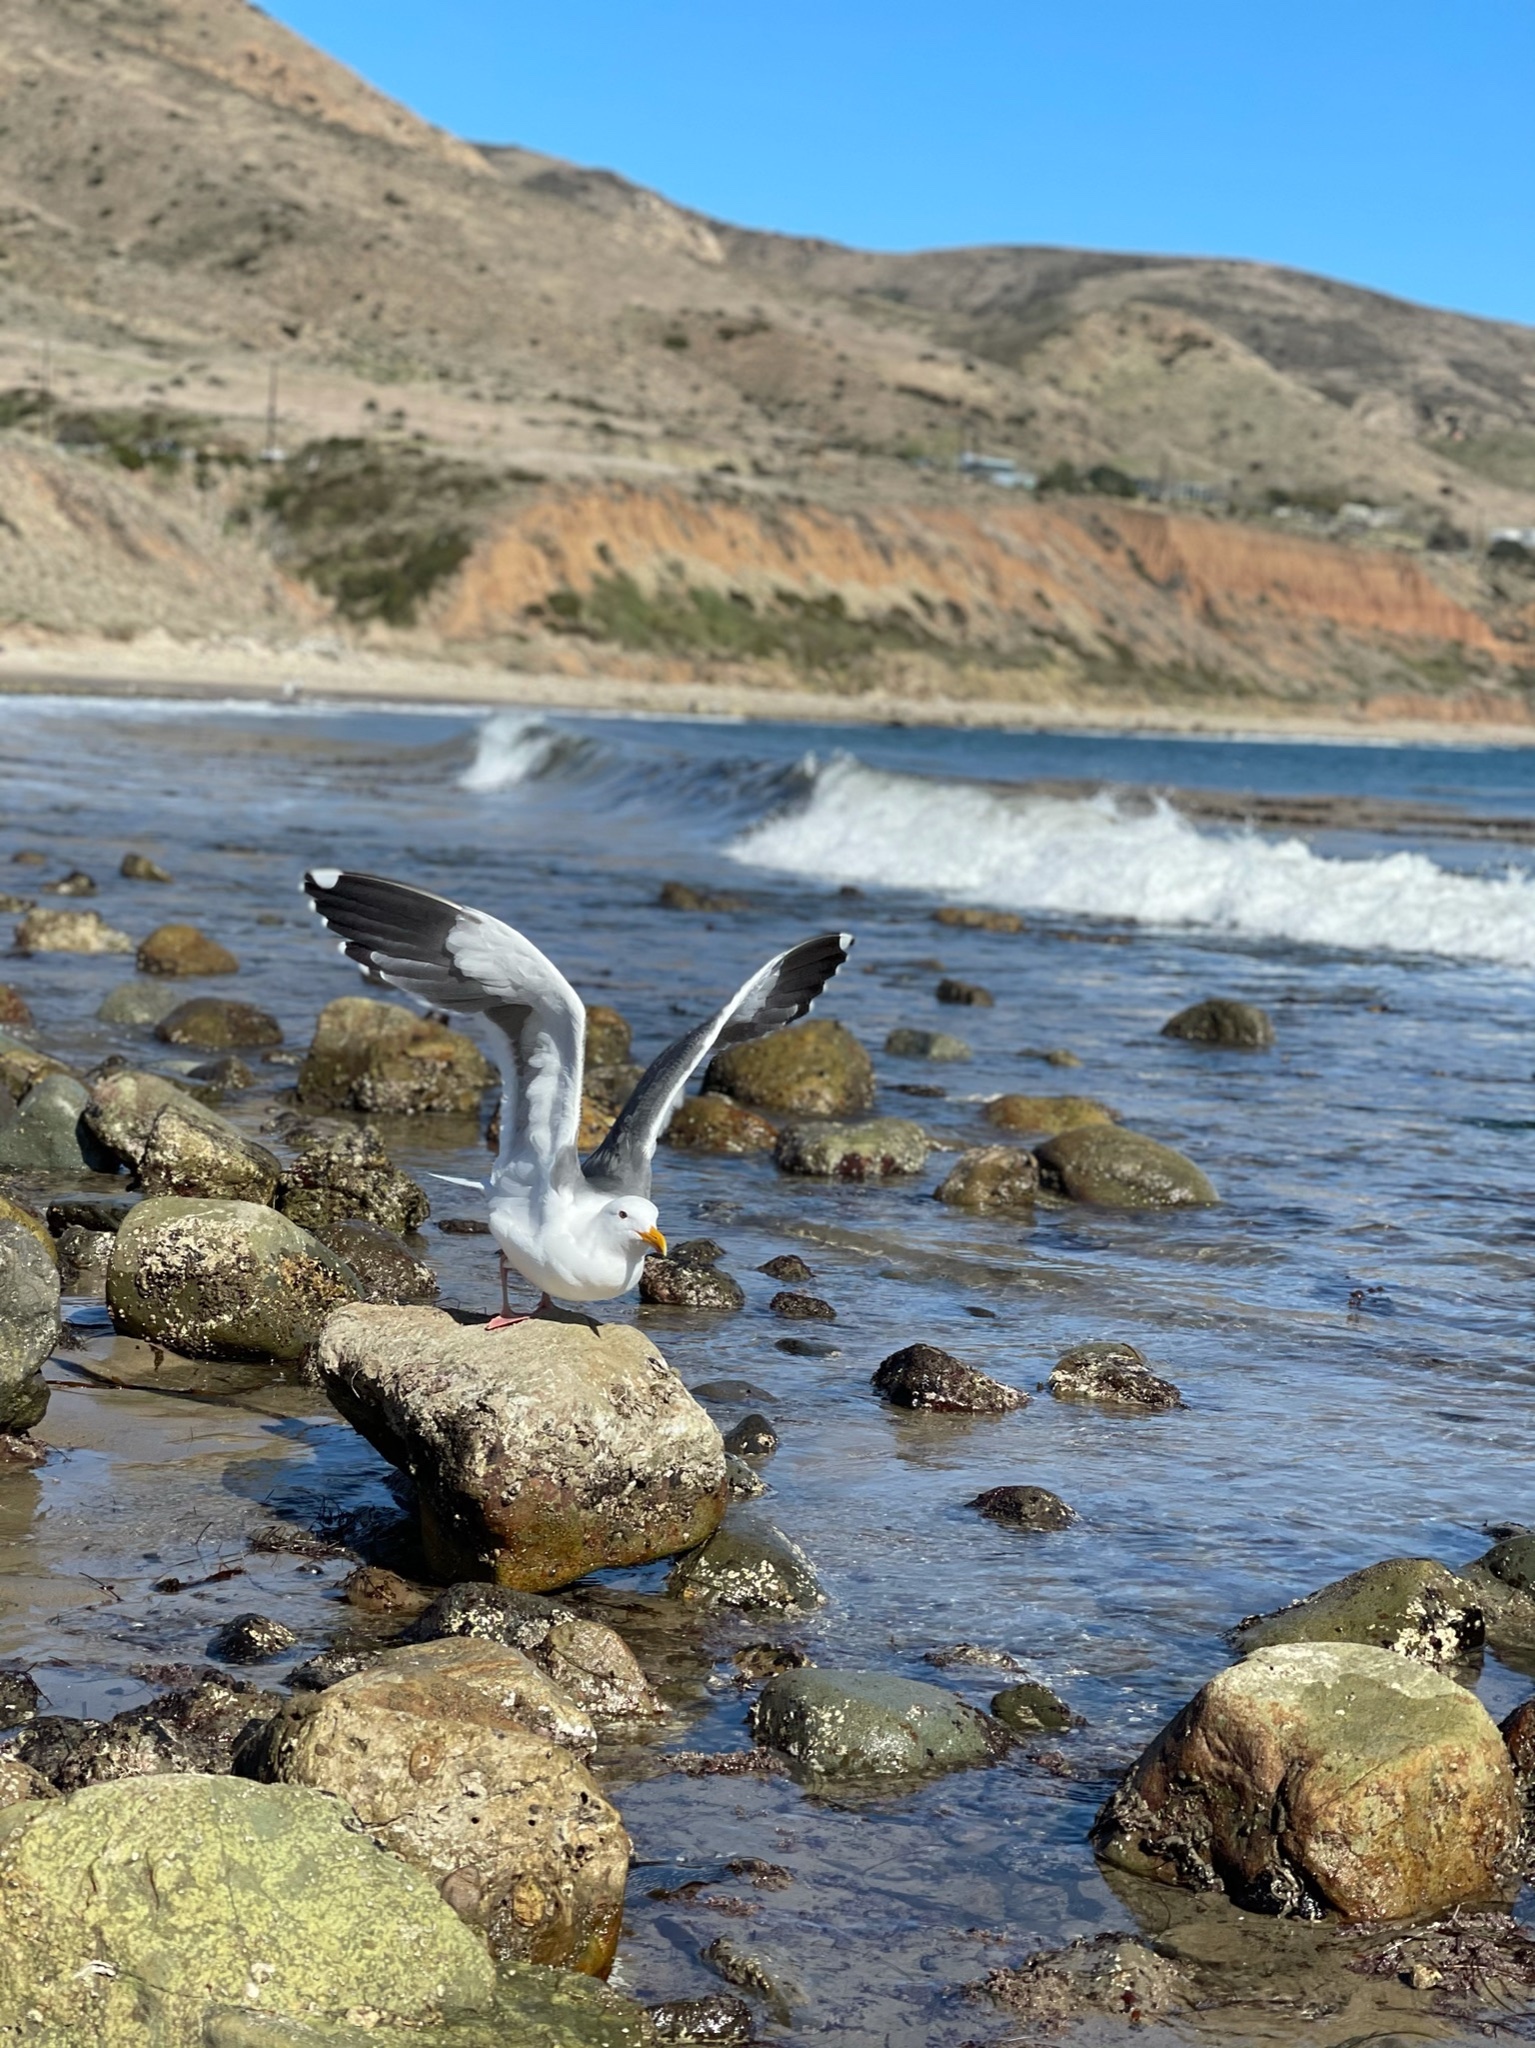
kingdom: Animalia
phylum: Chordata
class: Aves
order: Charadriiformes
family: Laridae
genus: Larus
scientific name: Larus occidentalis
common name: Western gull
